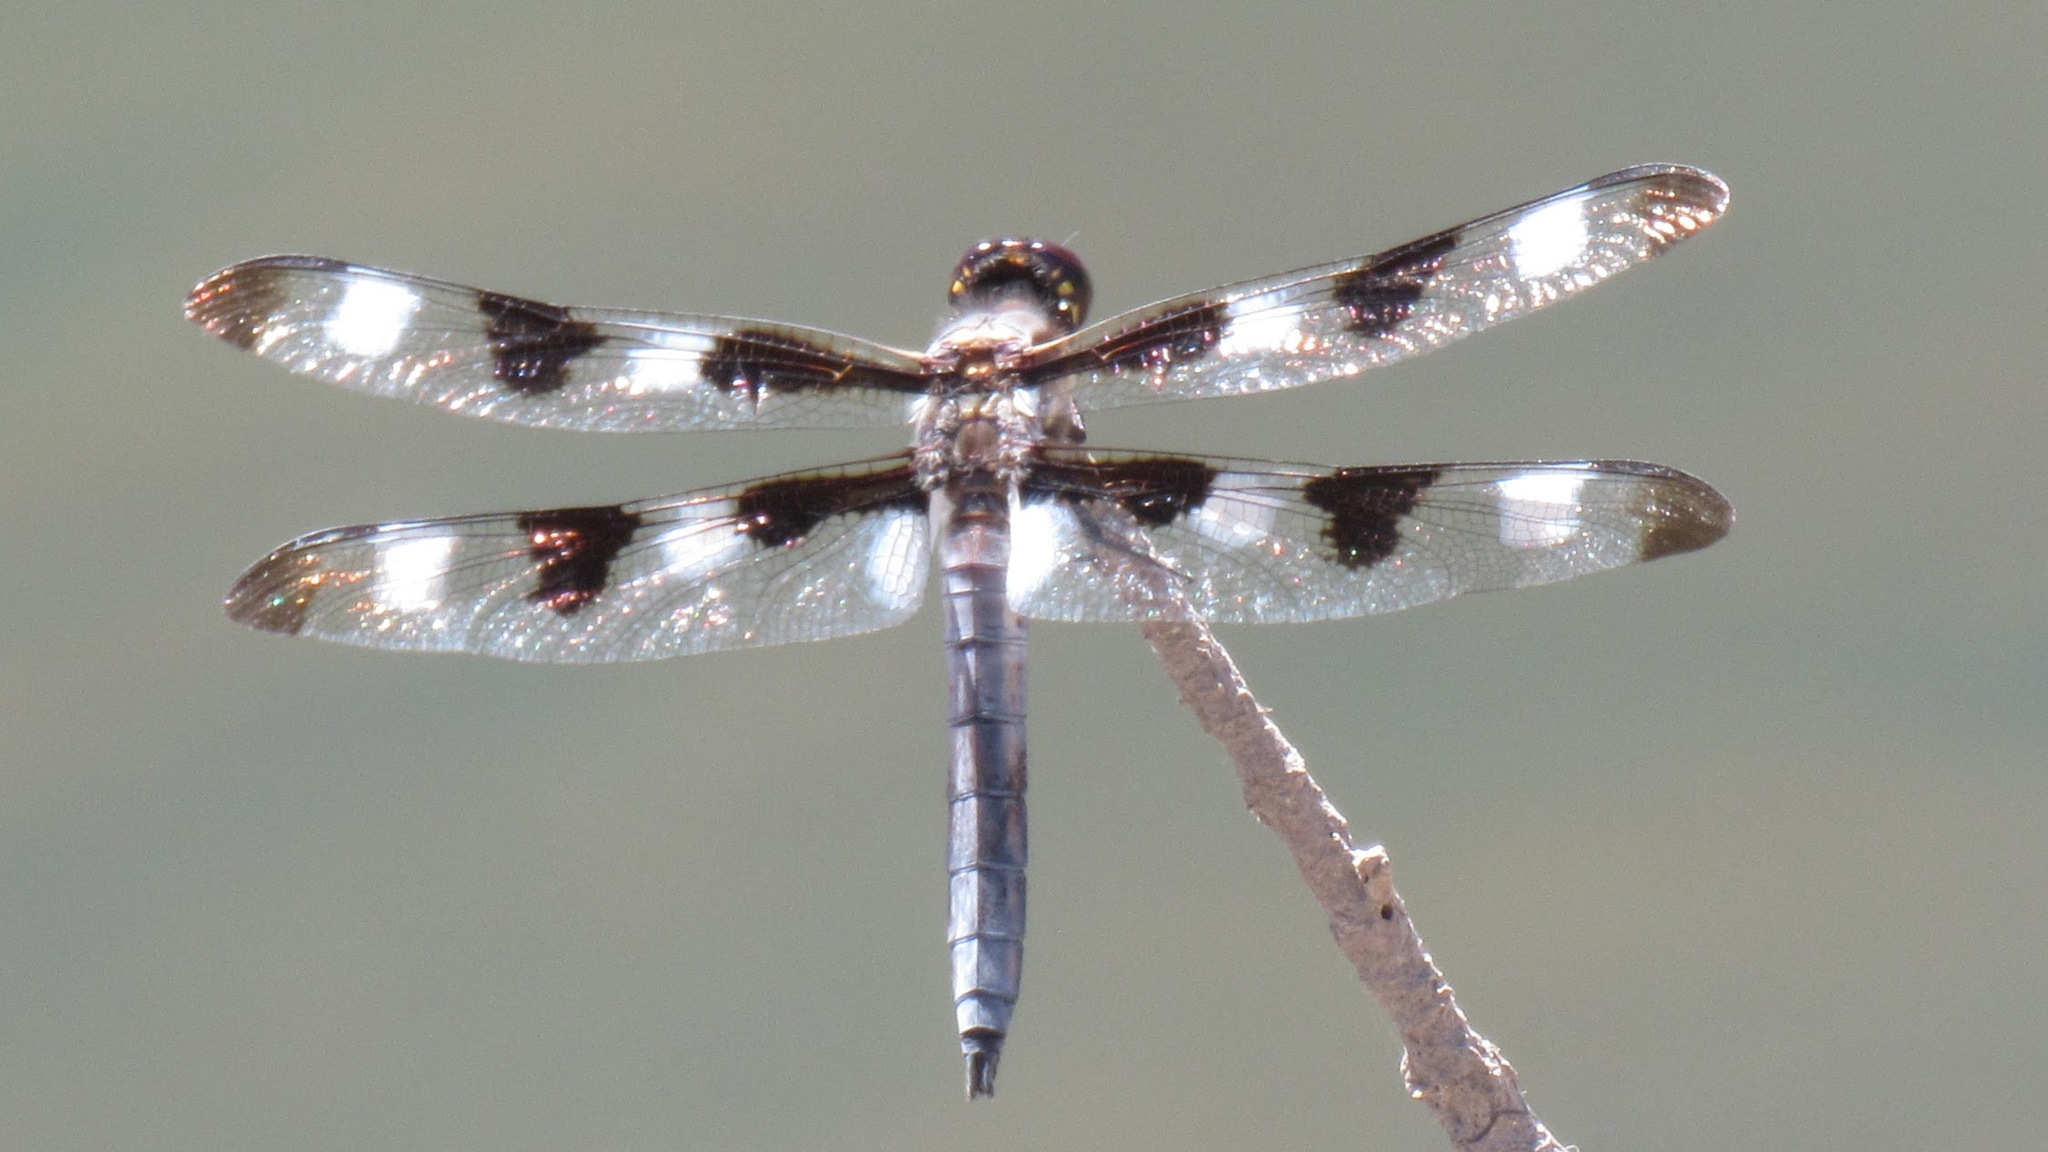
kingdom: Animalia
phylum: Arthropoda
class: Insecta
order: Odonata
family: Libellulidae
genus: Libellula
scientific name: Libellula pulchella
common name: Twelve-spotted skimmer
